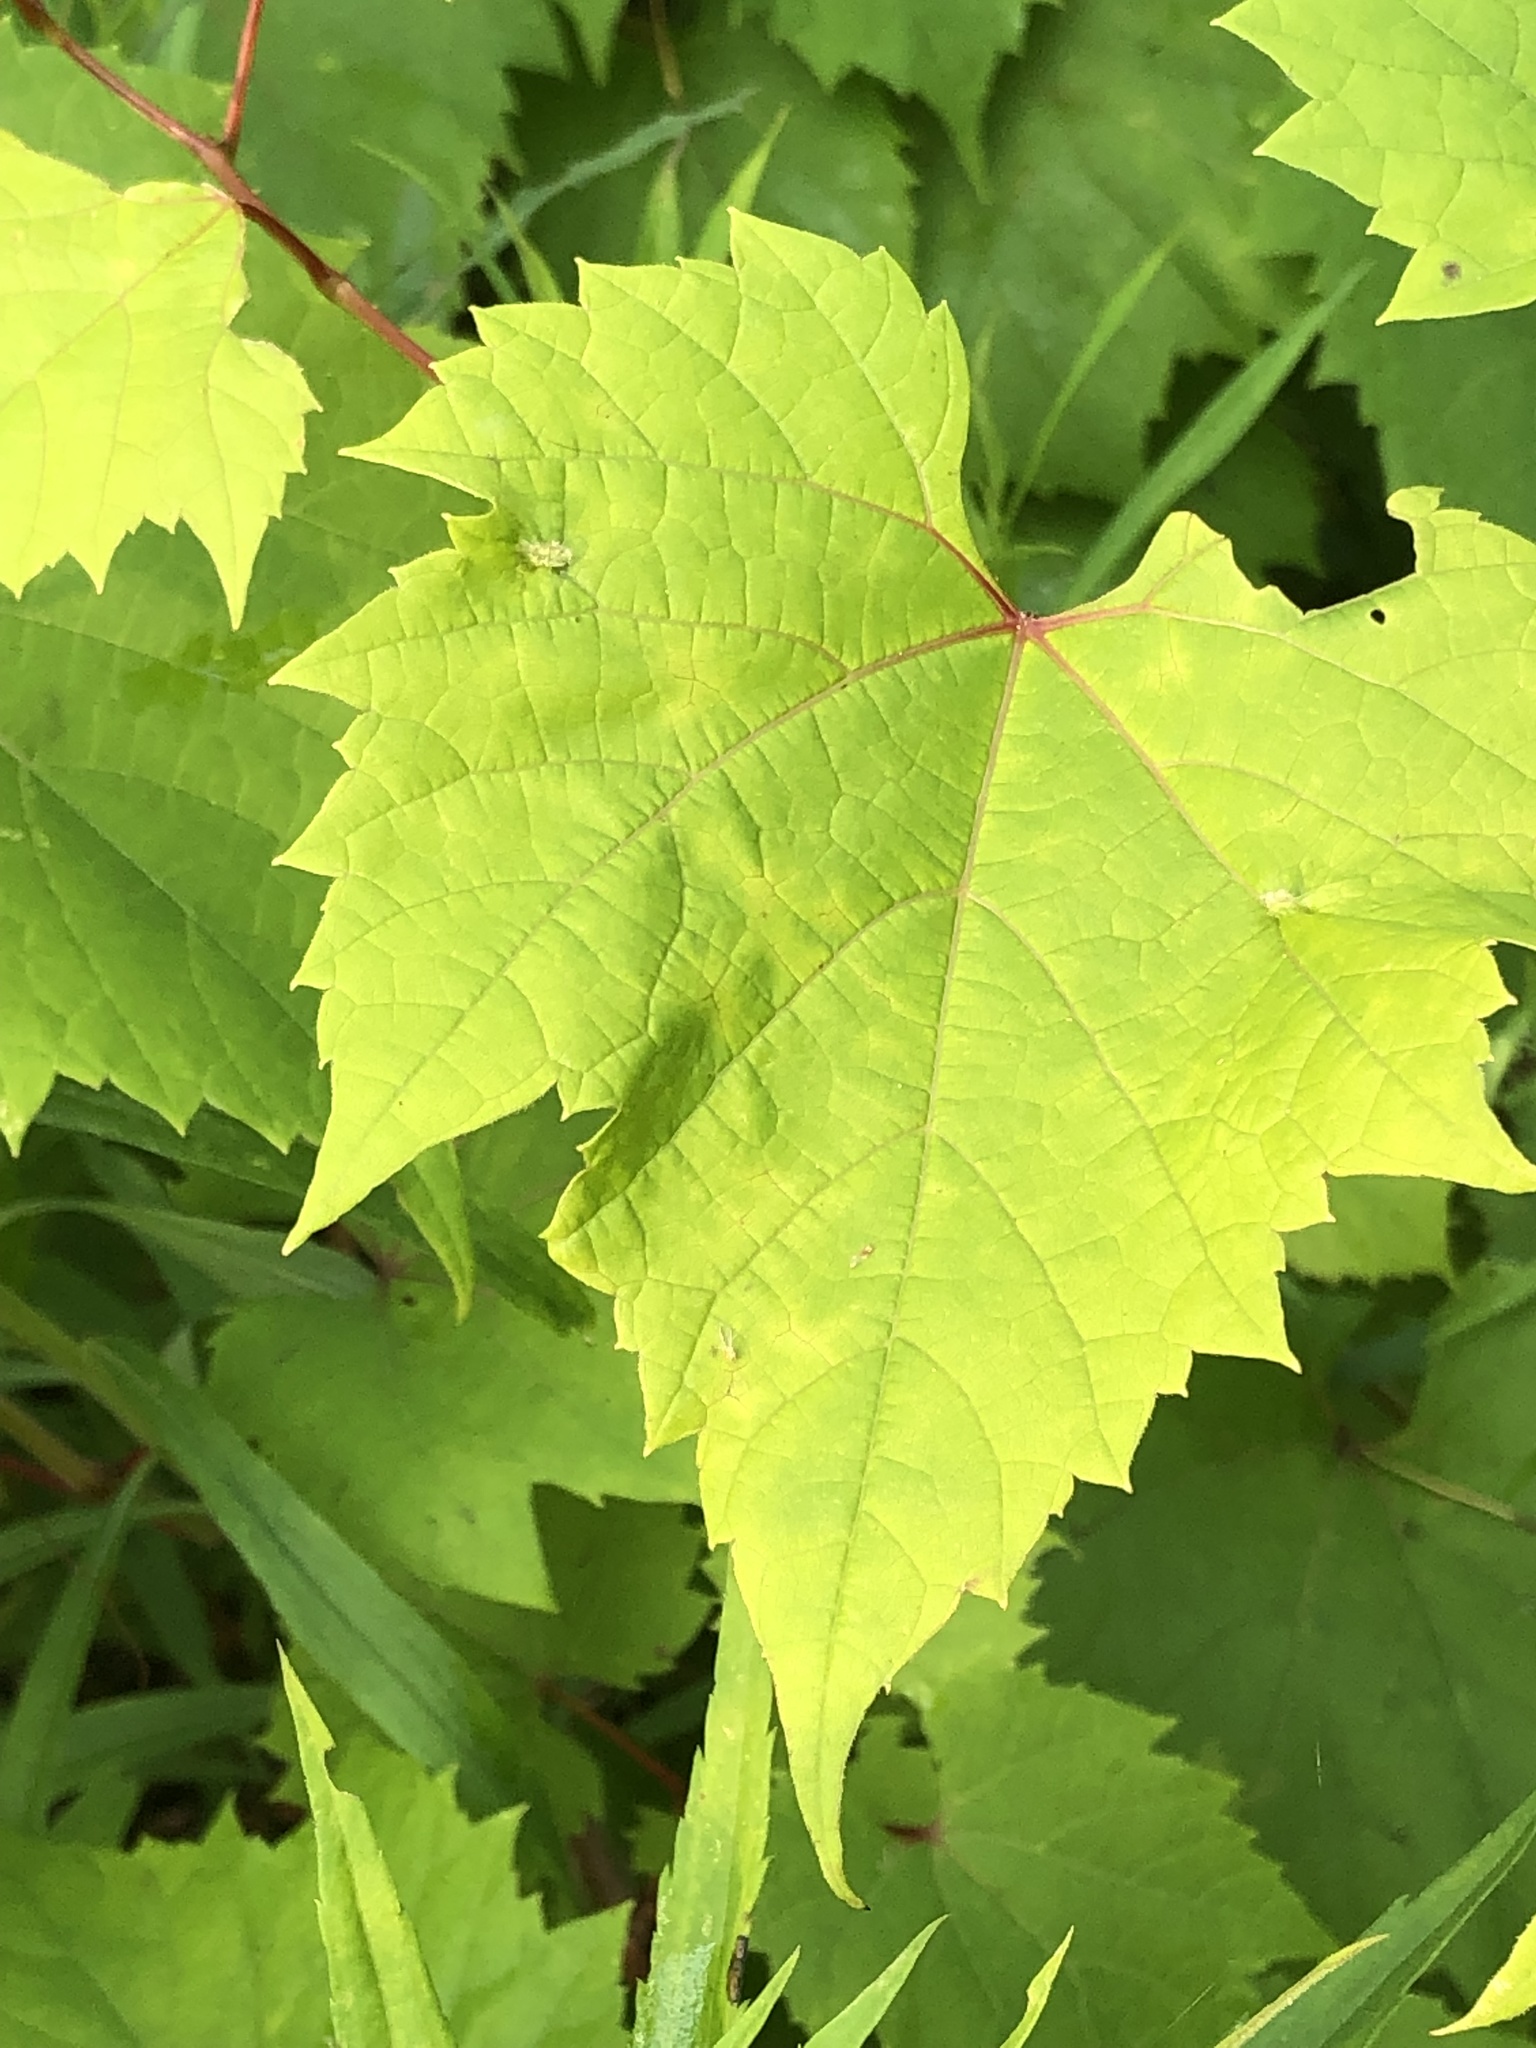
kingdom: Plantae
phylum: Tracheophyta
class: Magnoliopsida
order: Vitales
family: Vitaceae
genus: Vitis
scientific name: Vitis riparia
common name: Frost grape
